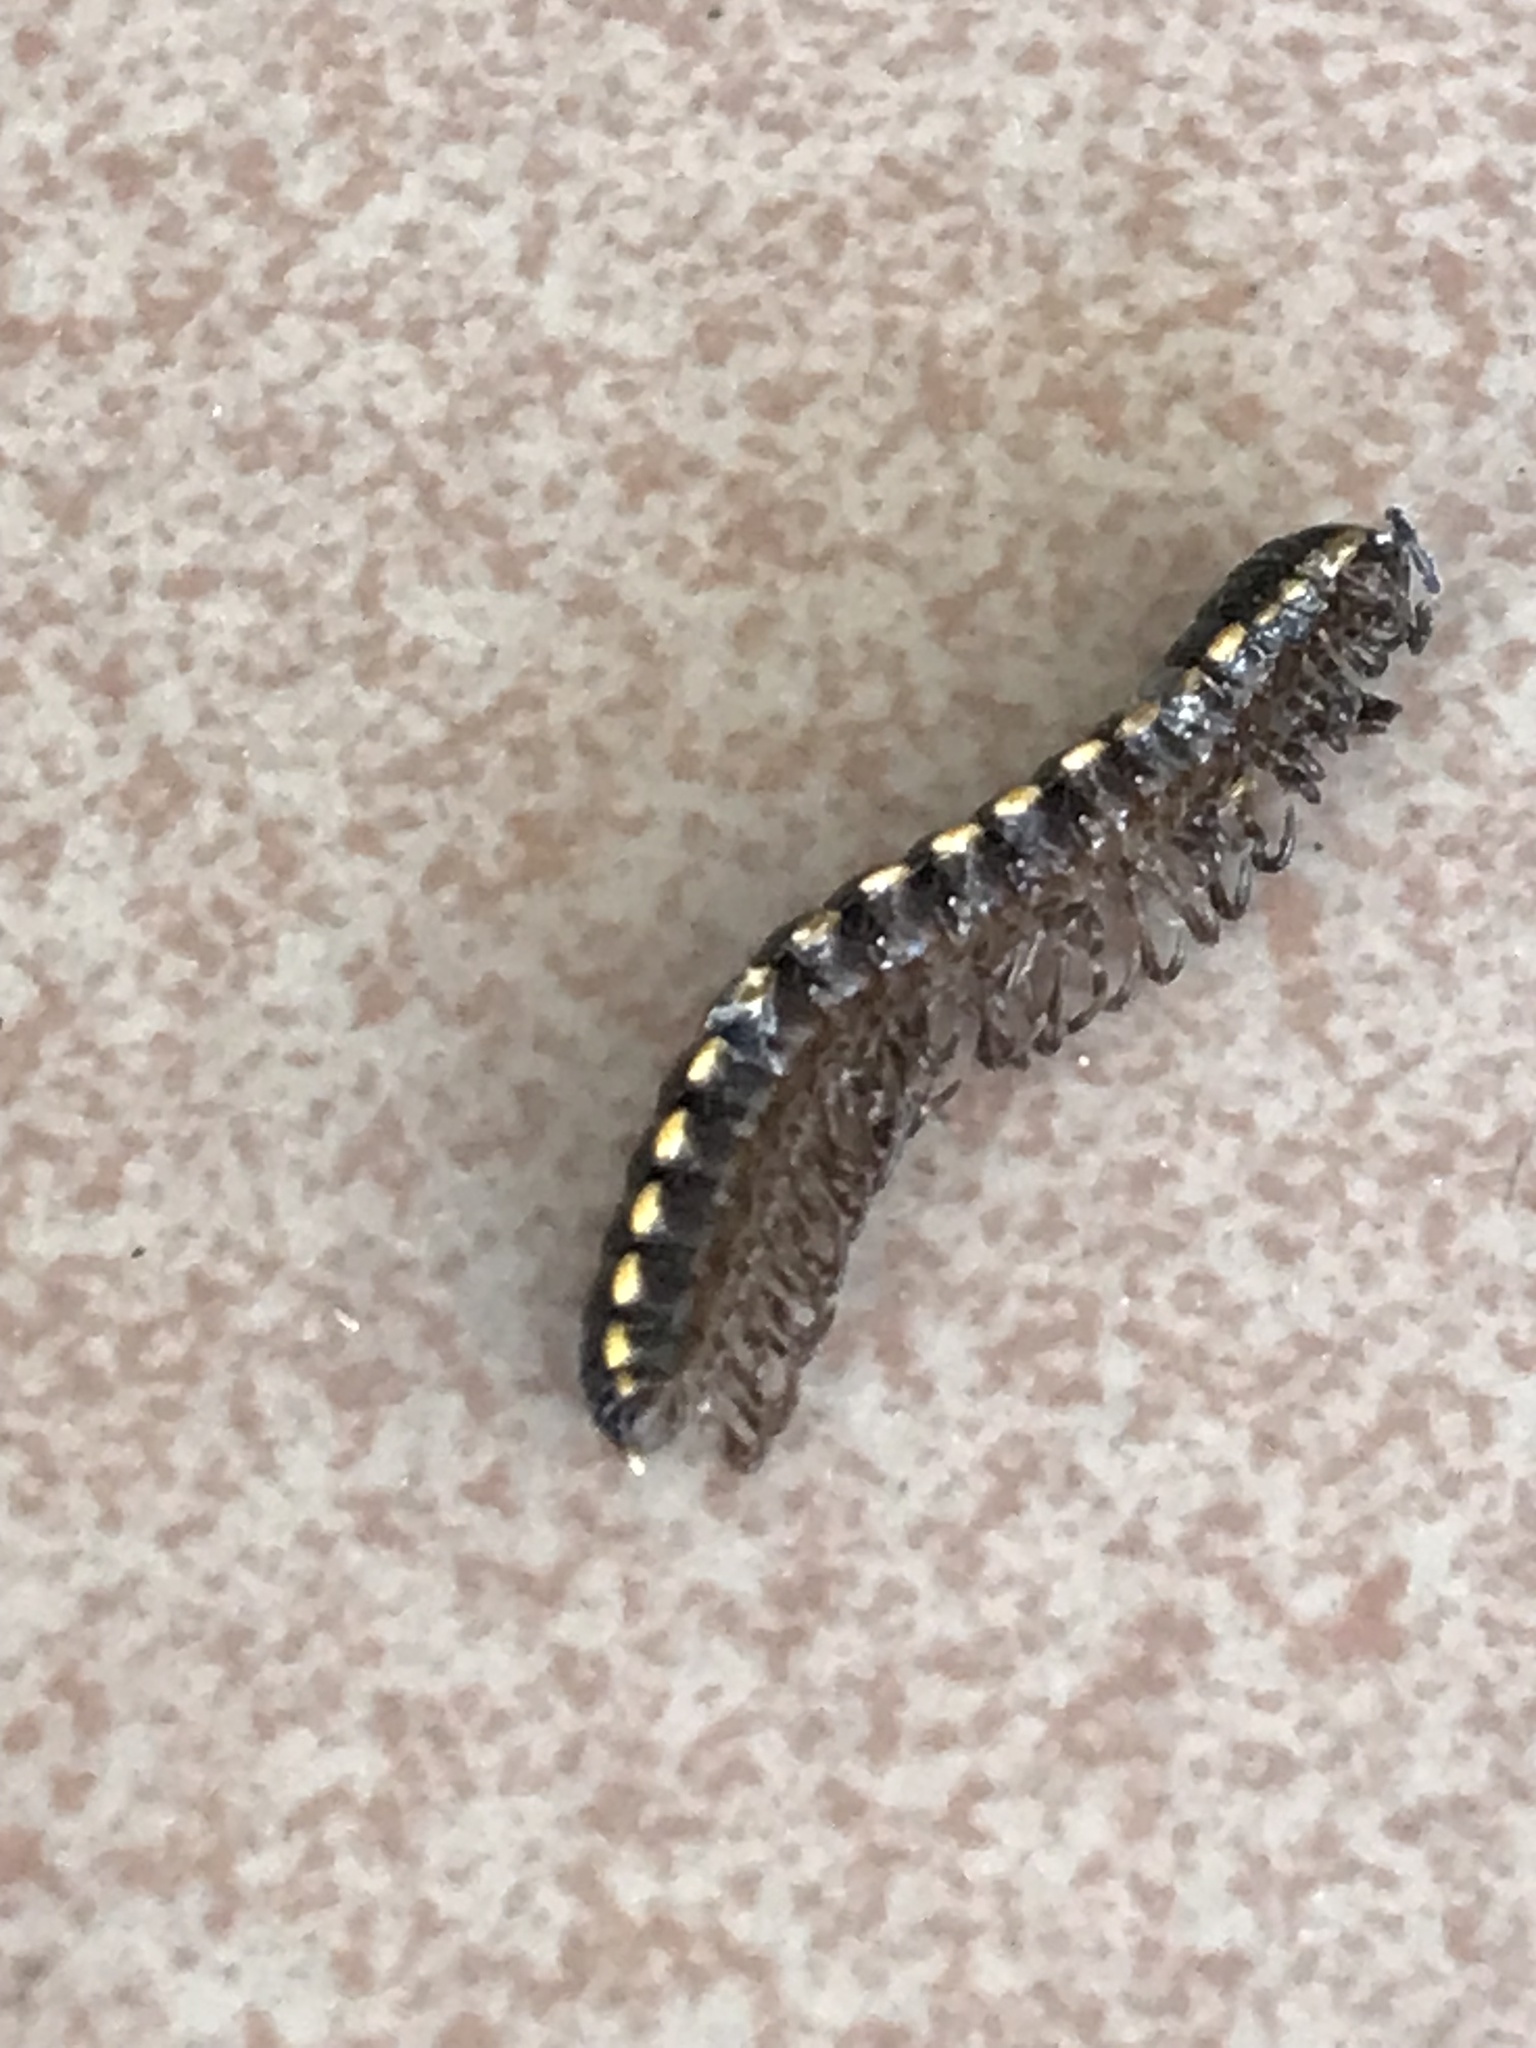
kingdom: Animalia
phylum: Arthropoda
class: Diplopoda
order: Polydesmida
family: Paradoxosomatidae
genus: Orthomorpha
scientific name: Orthomorpha coarctata
